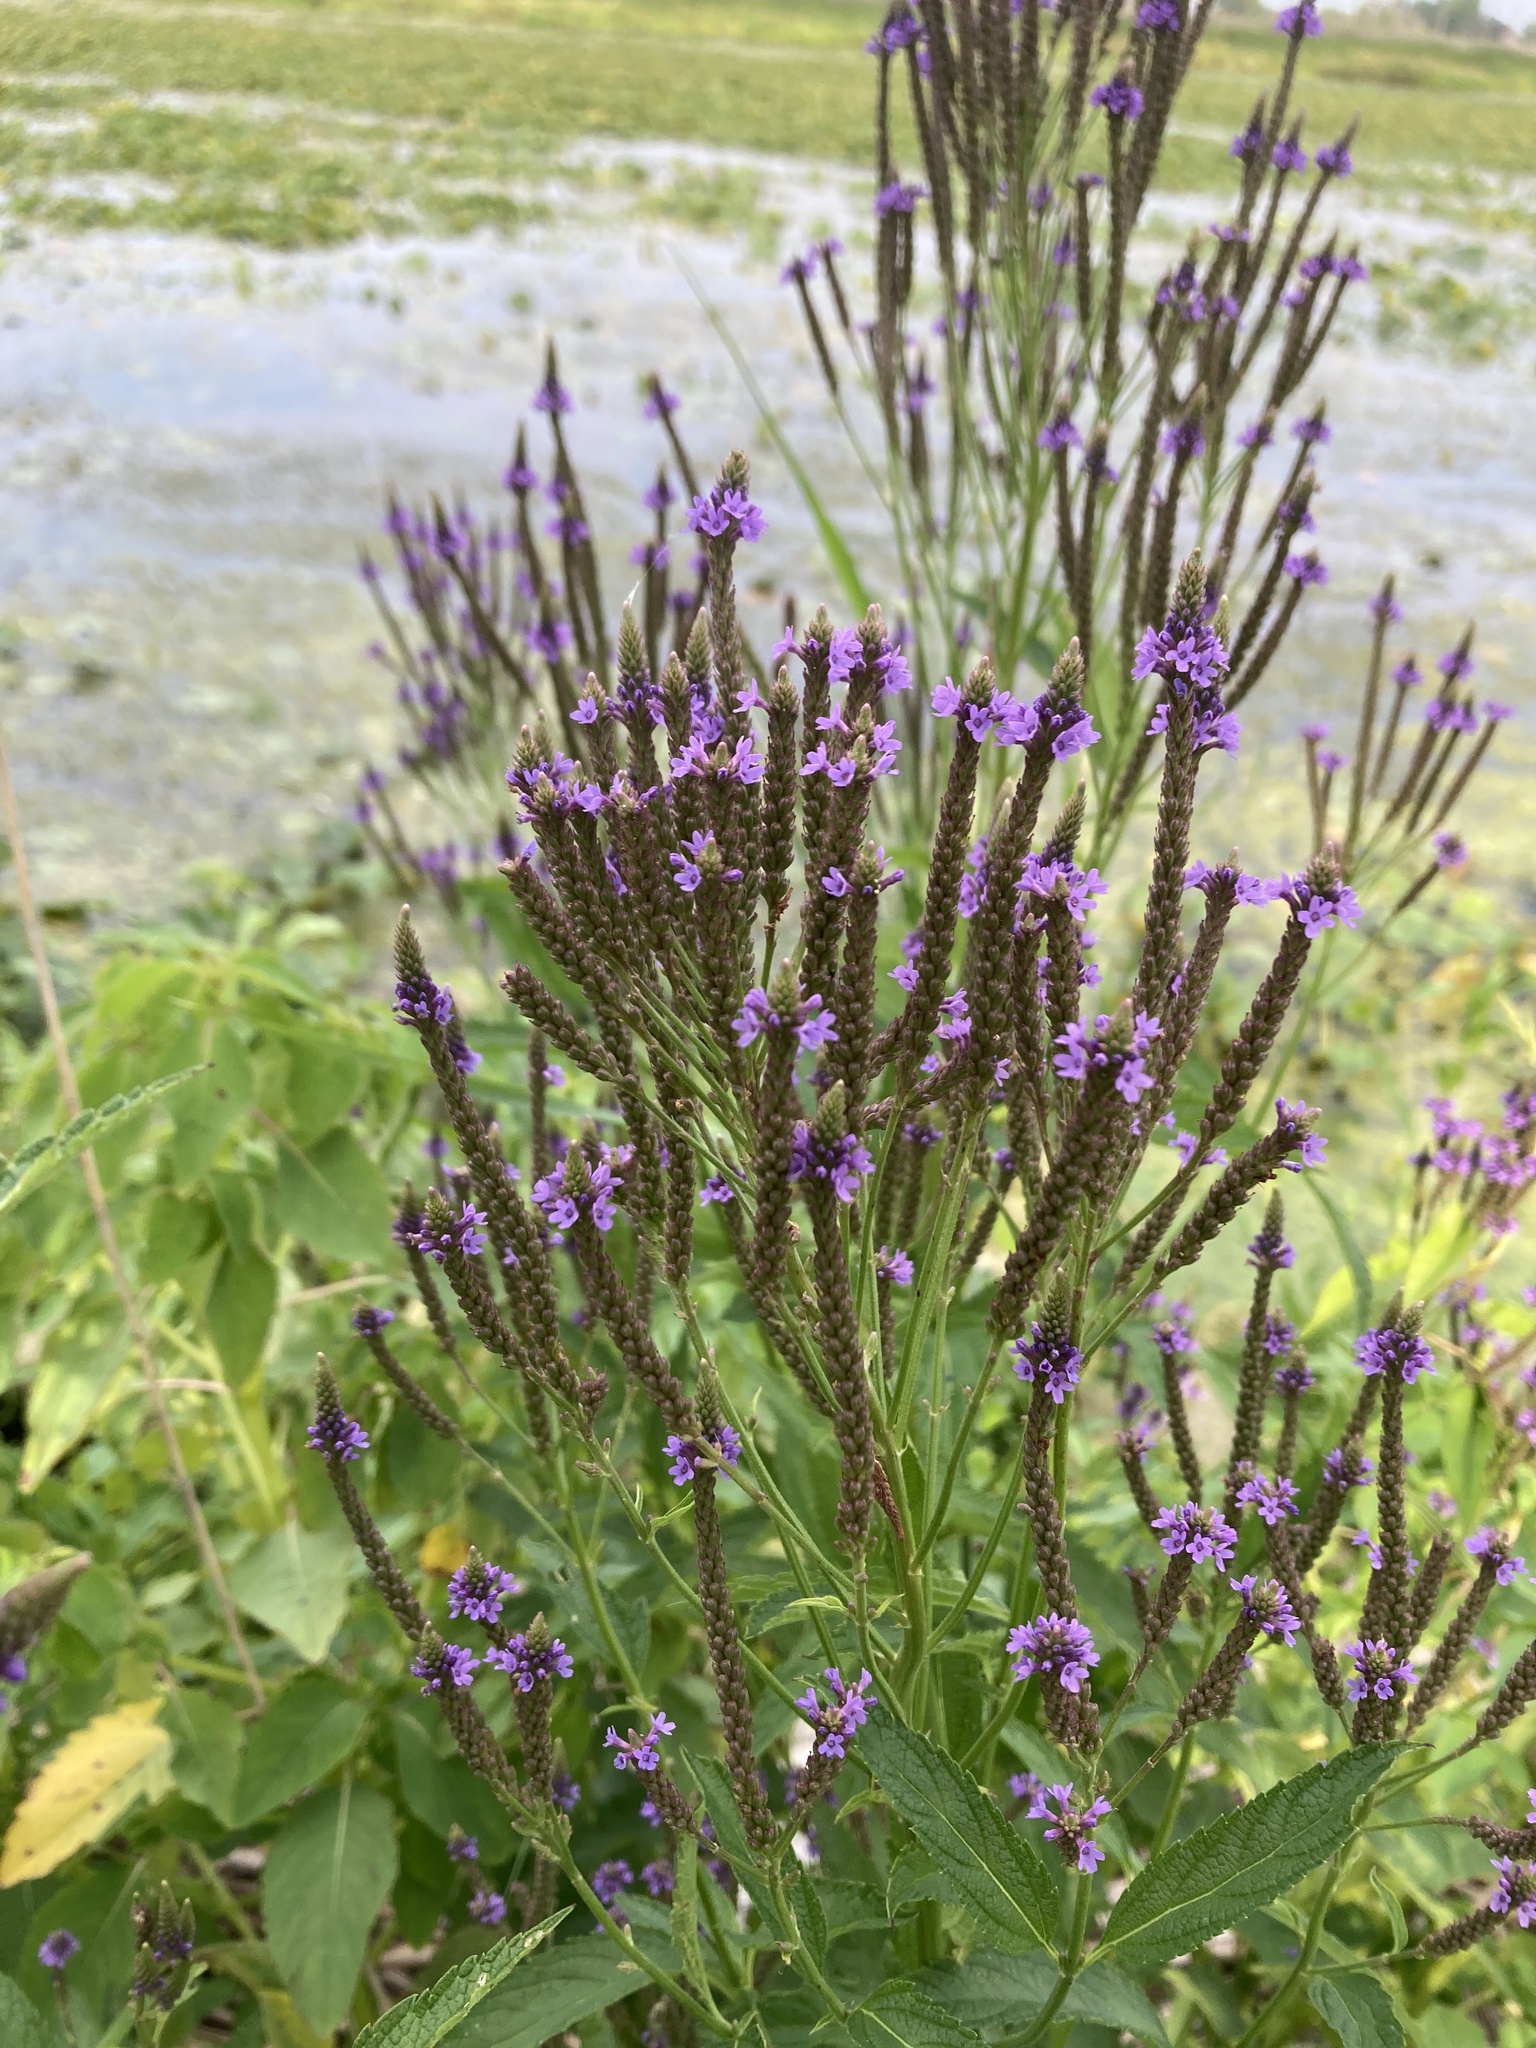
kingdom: Plantae
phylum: Tracheophyta
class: Magnoliopsida
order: Lamiales
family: Verbenaceae
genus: Verbena
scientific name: Verbena hastata
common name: American blue vervain
